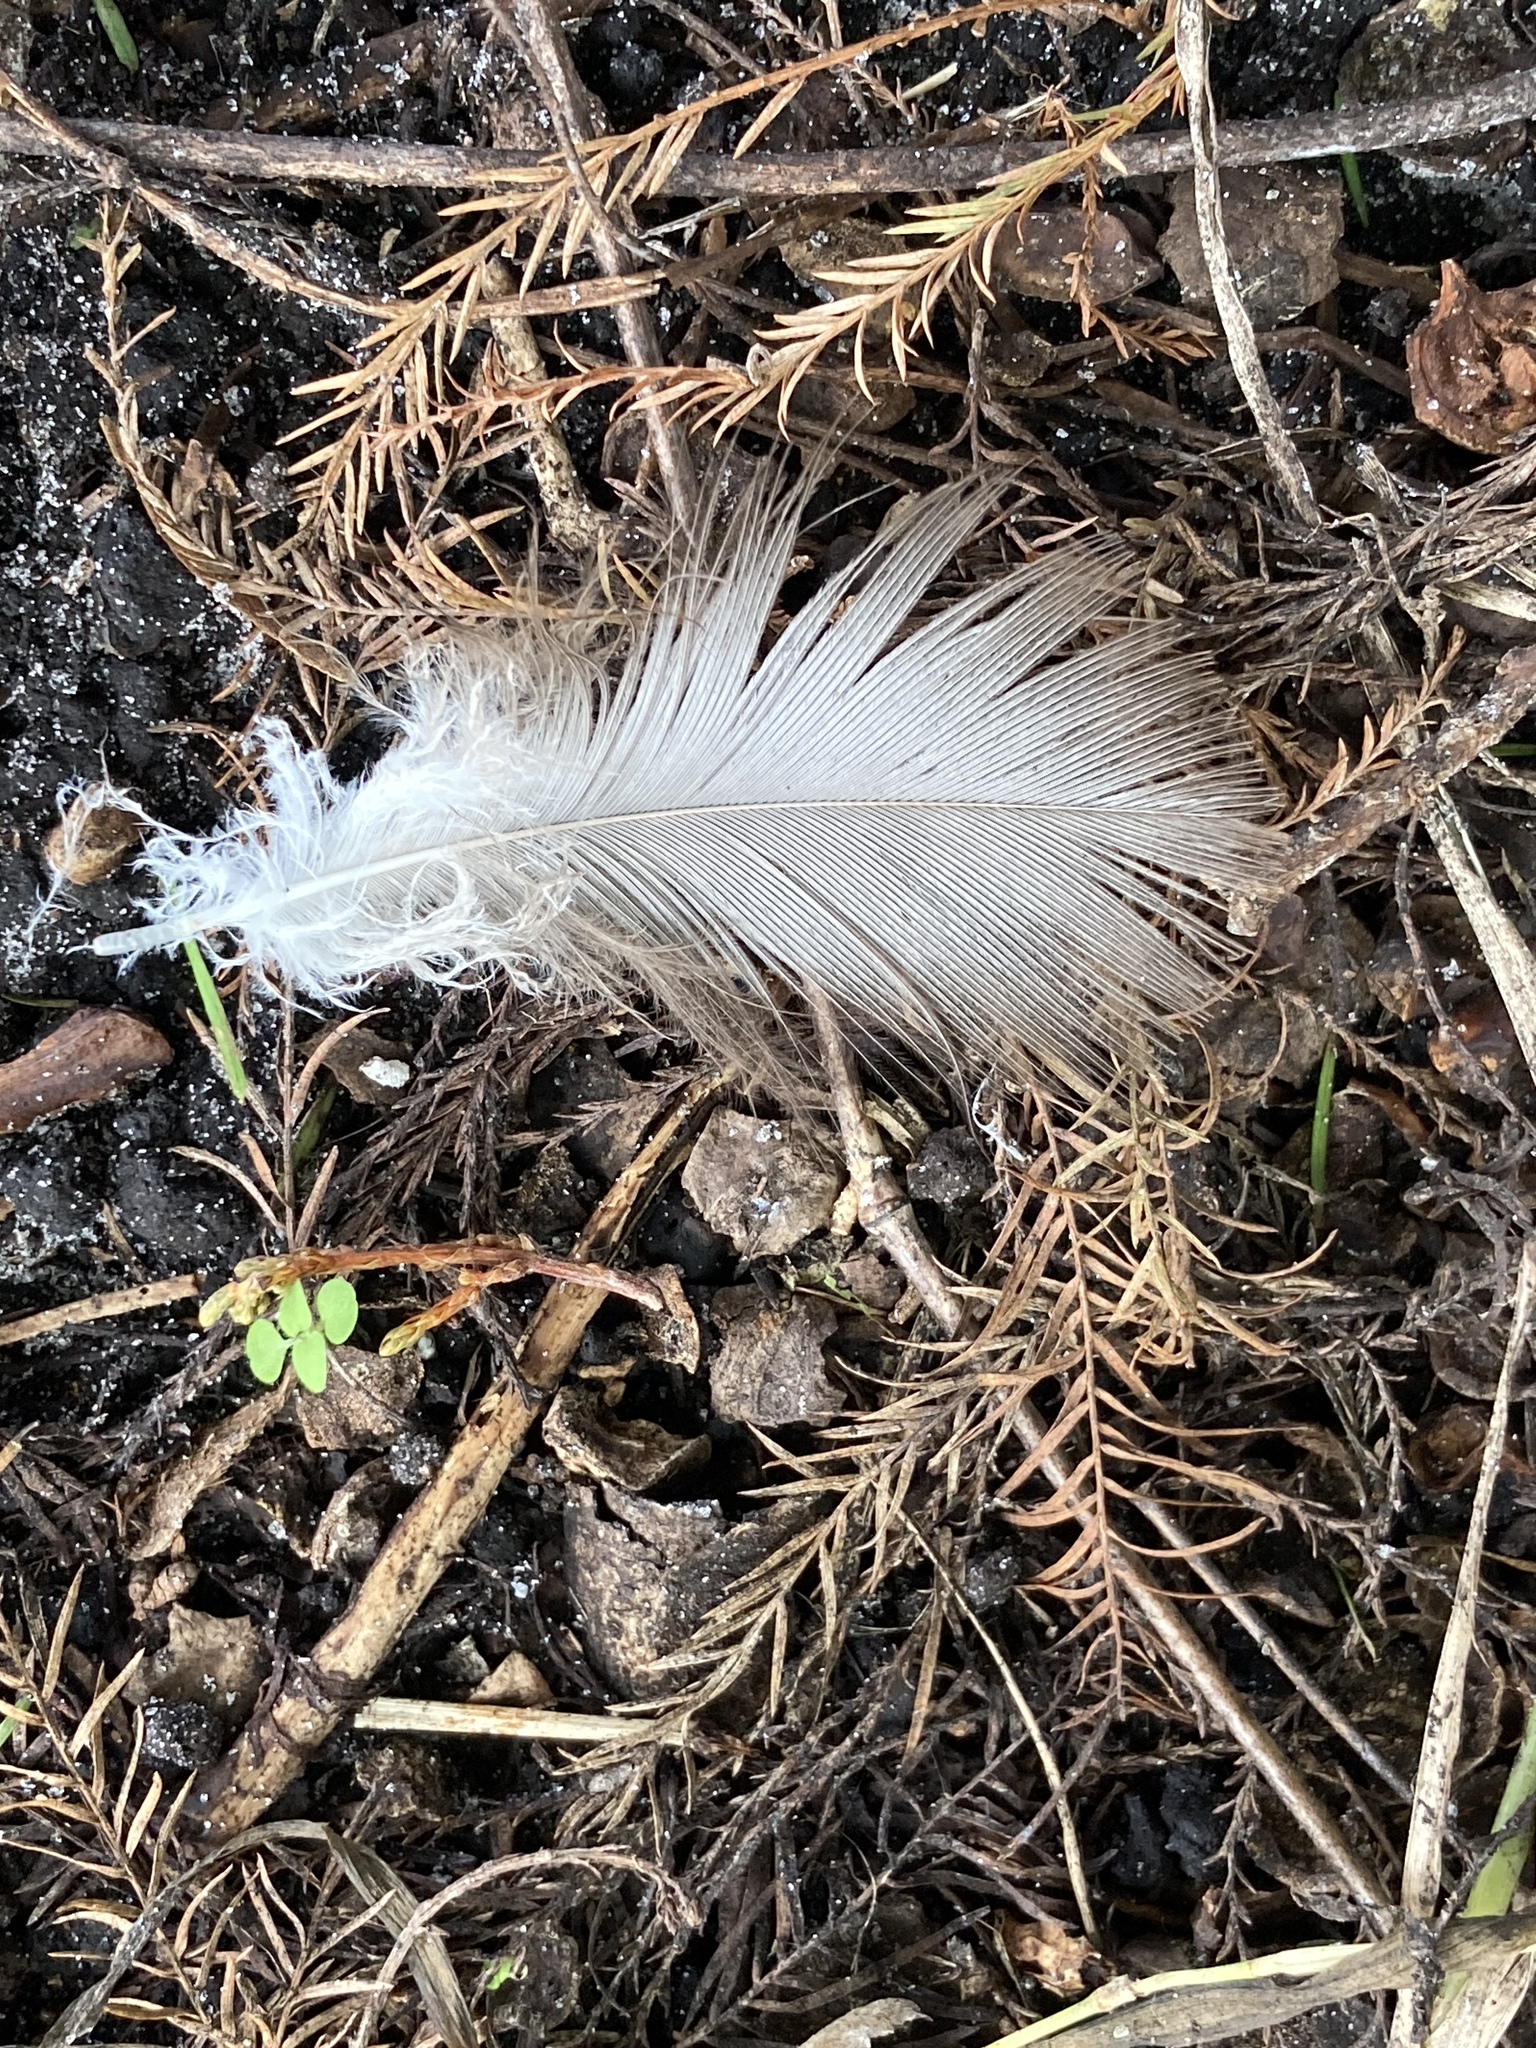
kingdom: Animalia
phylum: Chordata
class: Aves
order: Accipitriformes
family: Cathartidae
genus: Cathartes
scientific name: Cathartes aura
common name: Turkey vulture
